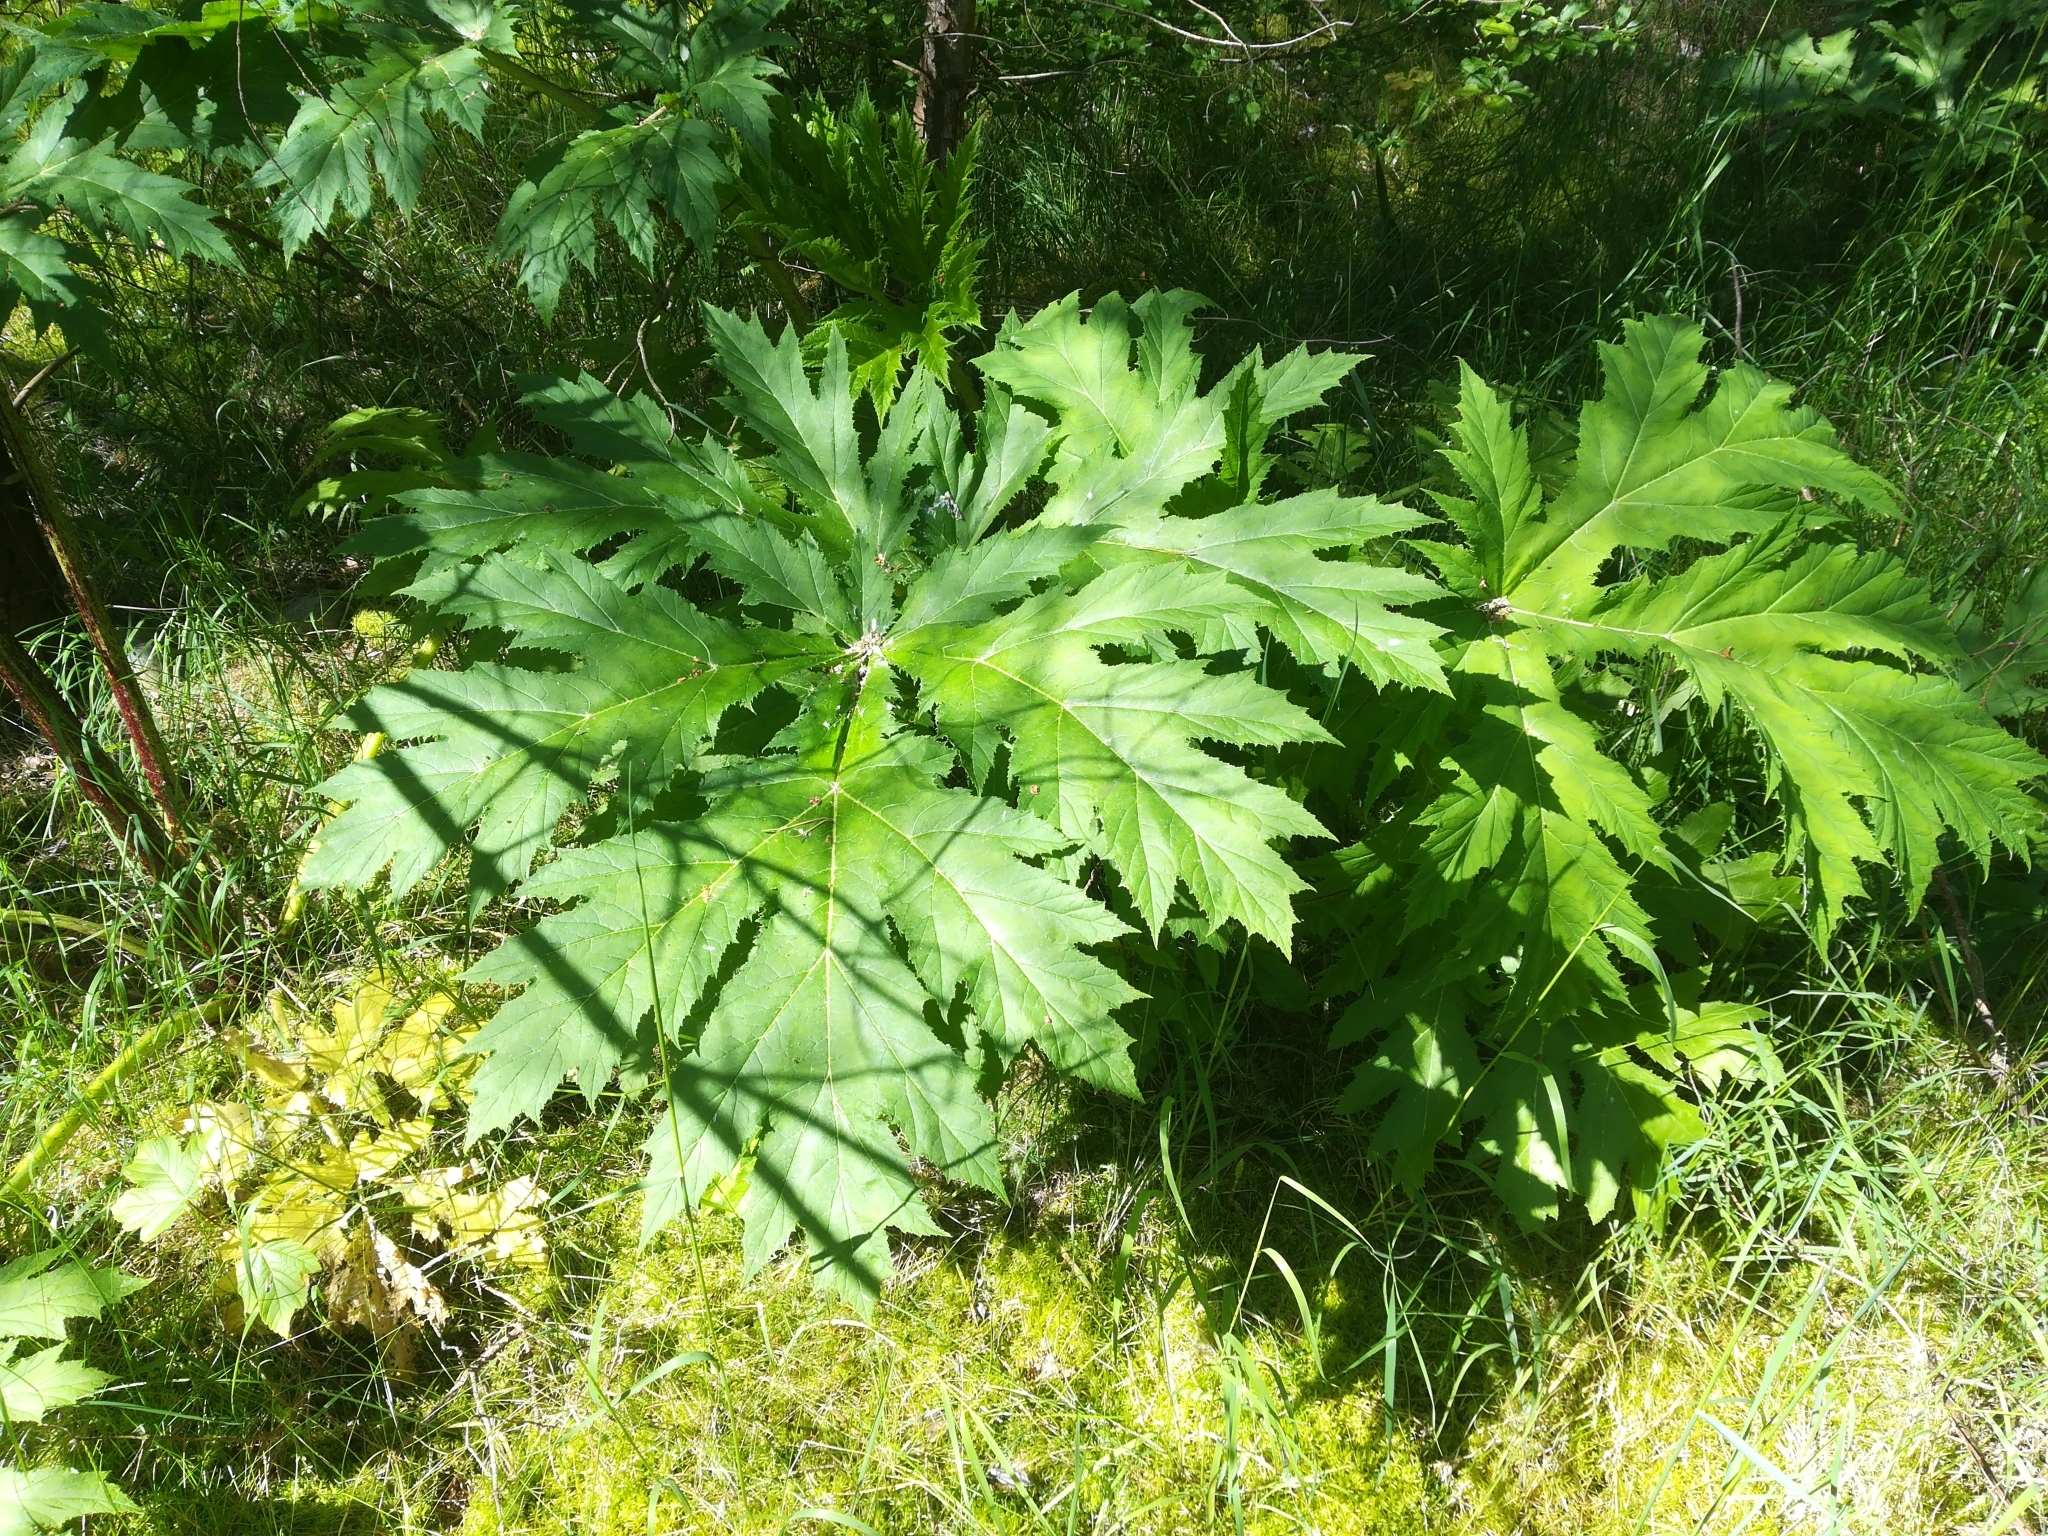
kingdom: Plantae
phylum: Tracheophyta
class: Magnoliopsida
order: Apiales
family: Apiaceae
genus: Heracleum
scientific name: Heracleum mantegazzianum
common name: Giant hogweed
